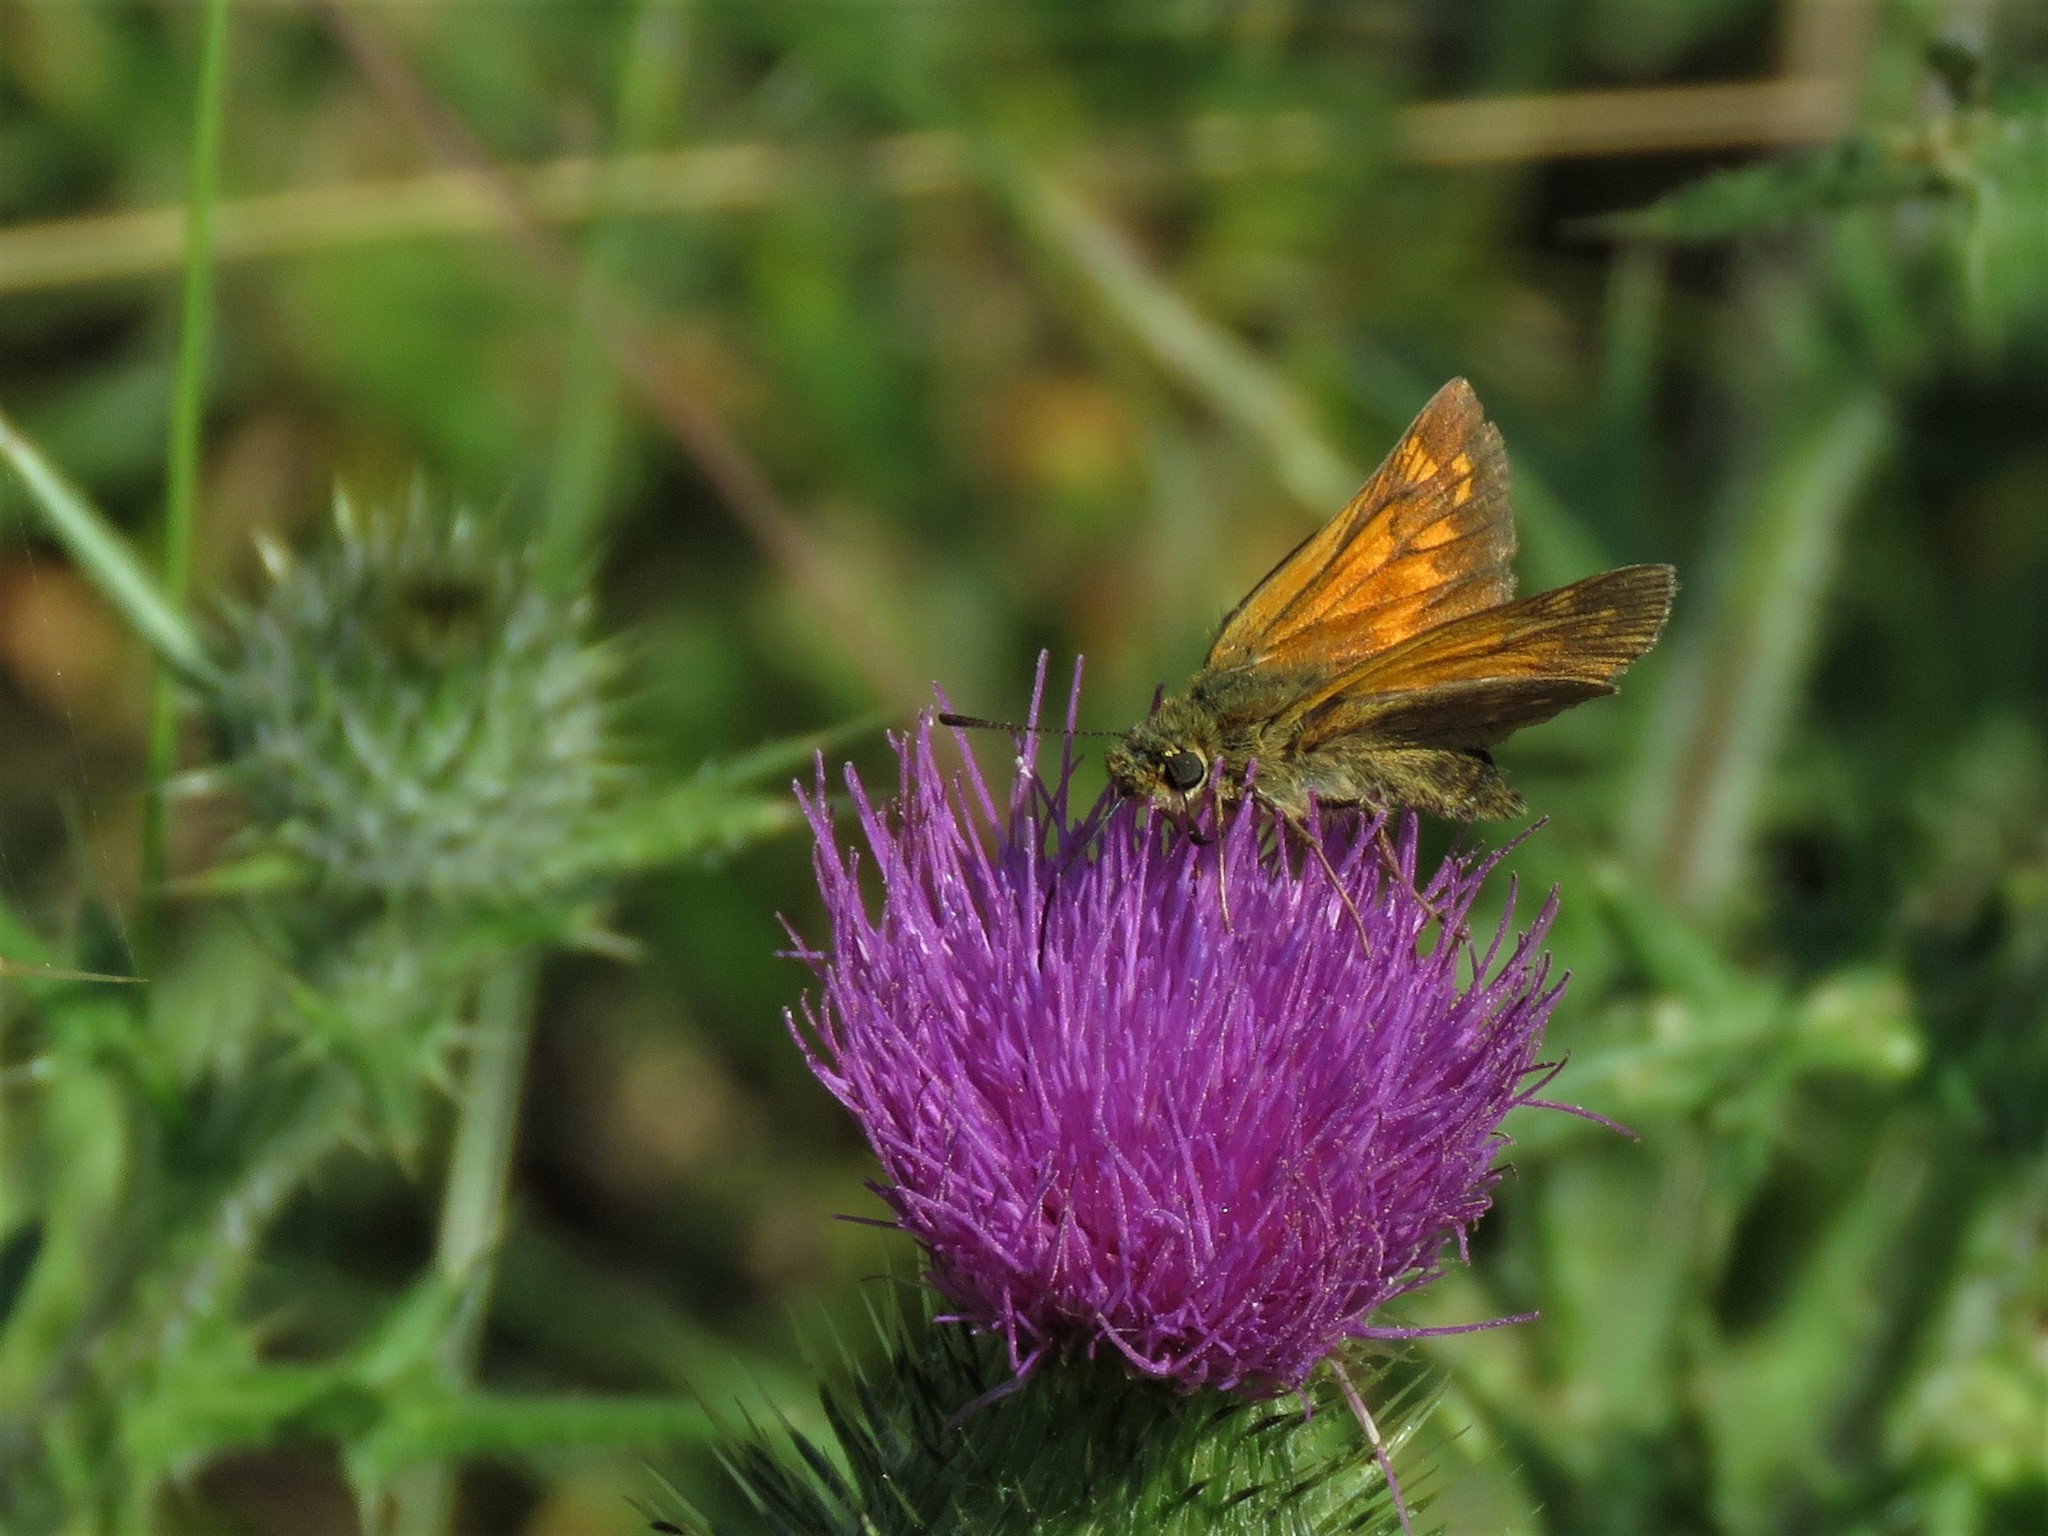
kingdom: Animalia
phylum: Arthropoda
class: Insecta
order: Lepidoptera
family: Hesperiidae
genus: Ochlodes
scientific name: Ochlodes venata
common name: Large skipper
